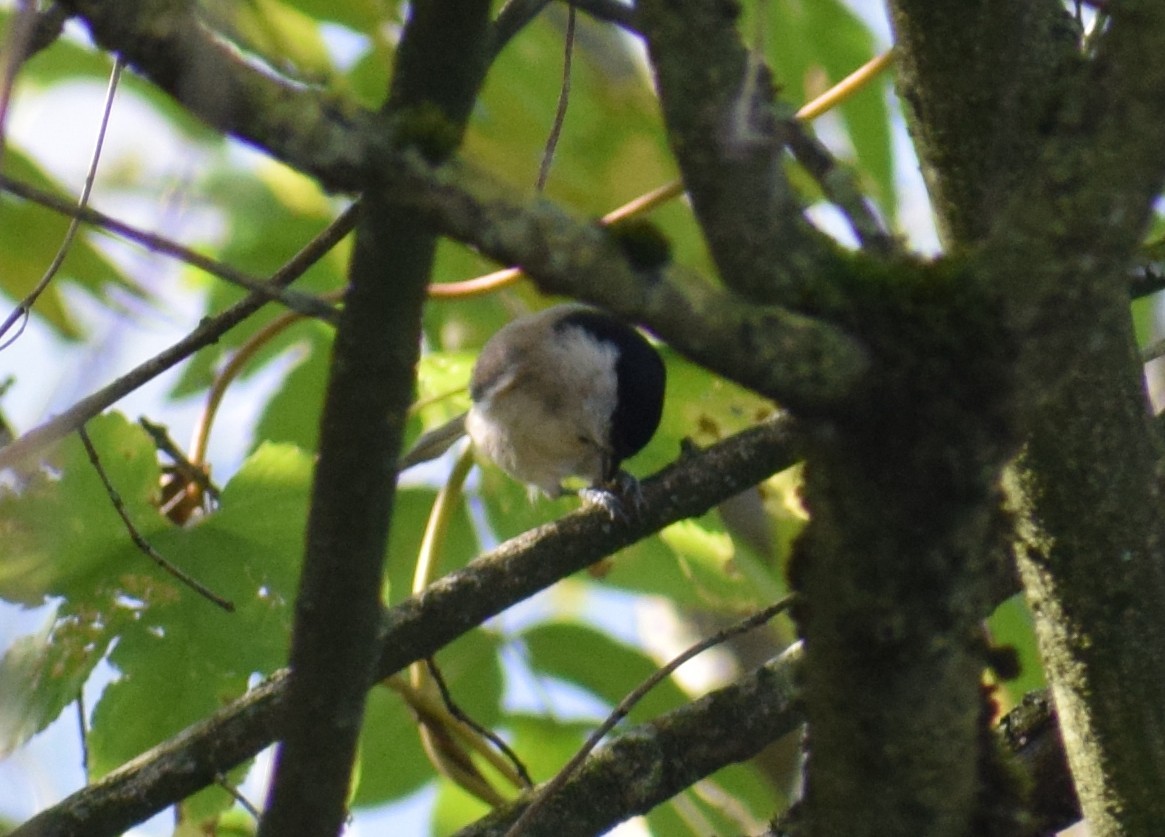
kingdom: Animalia
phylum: Chordata
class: Aves
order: Passeriformes
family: Paridae
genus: Poecile
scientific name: Poecile palustris
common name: Marsh tit
